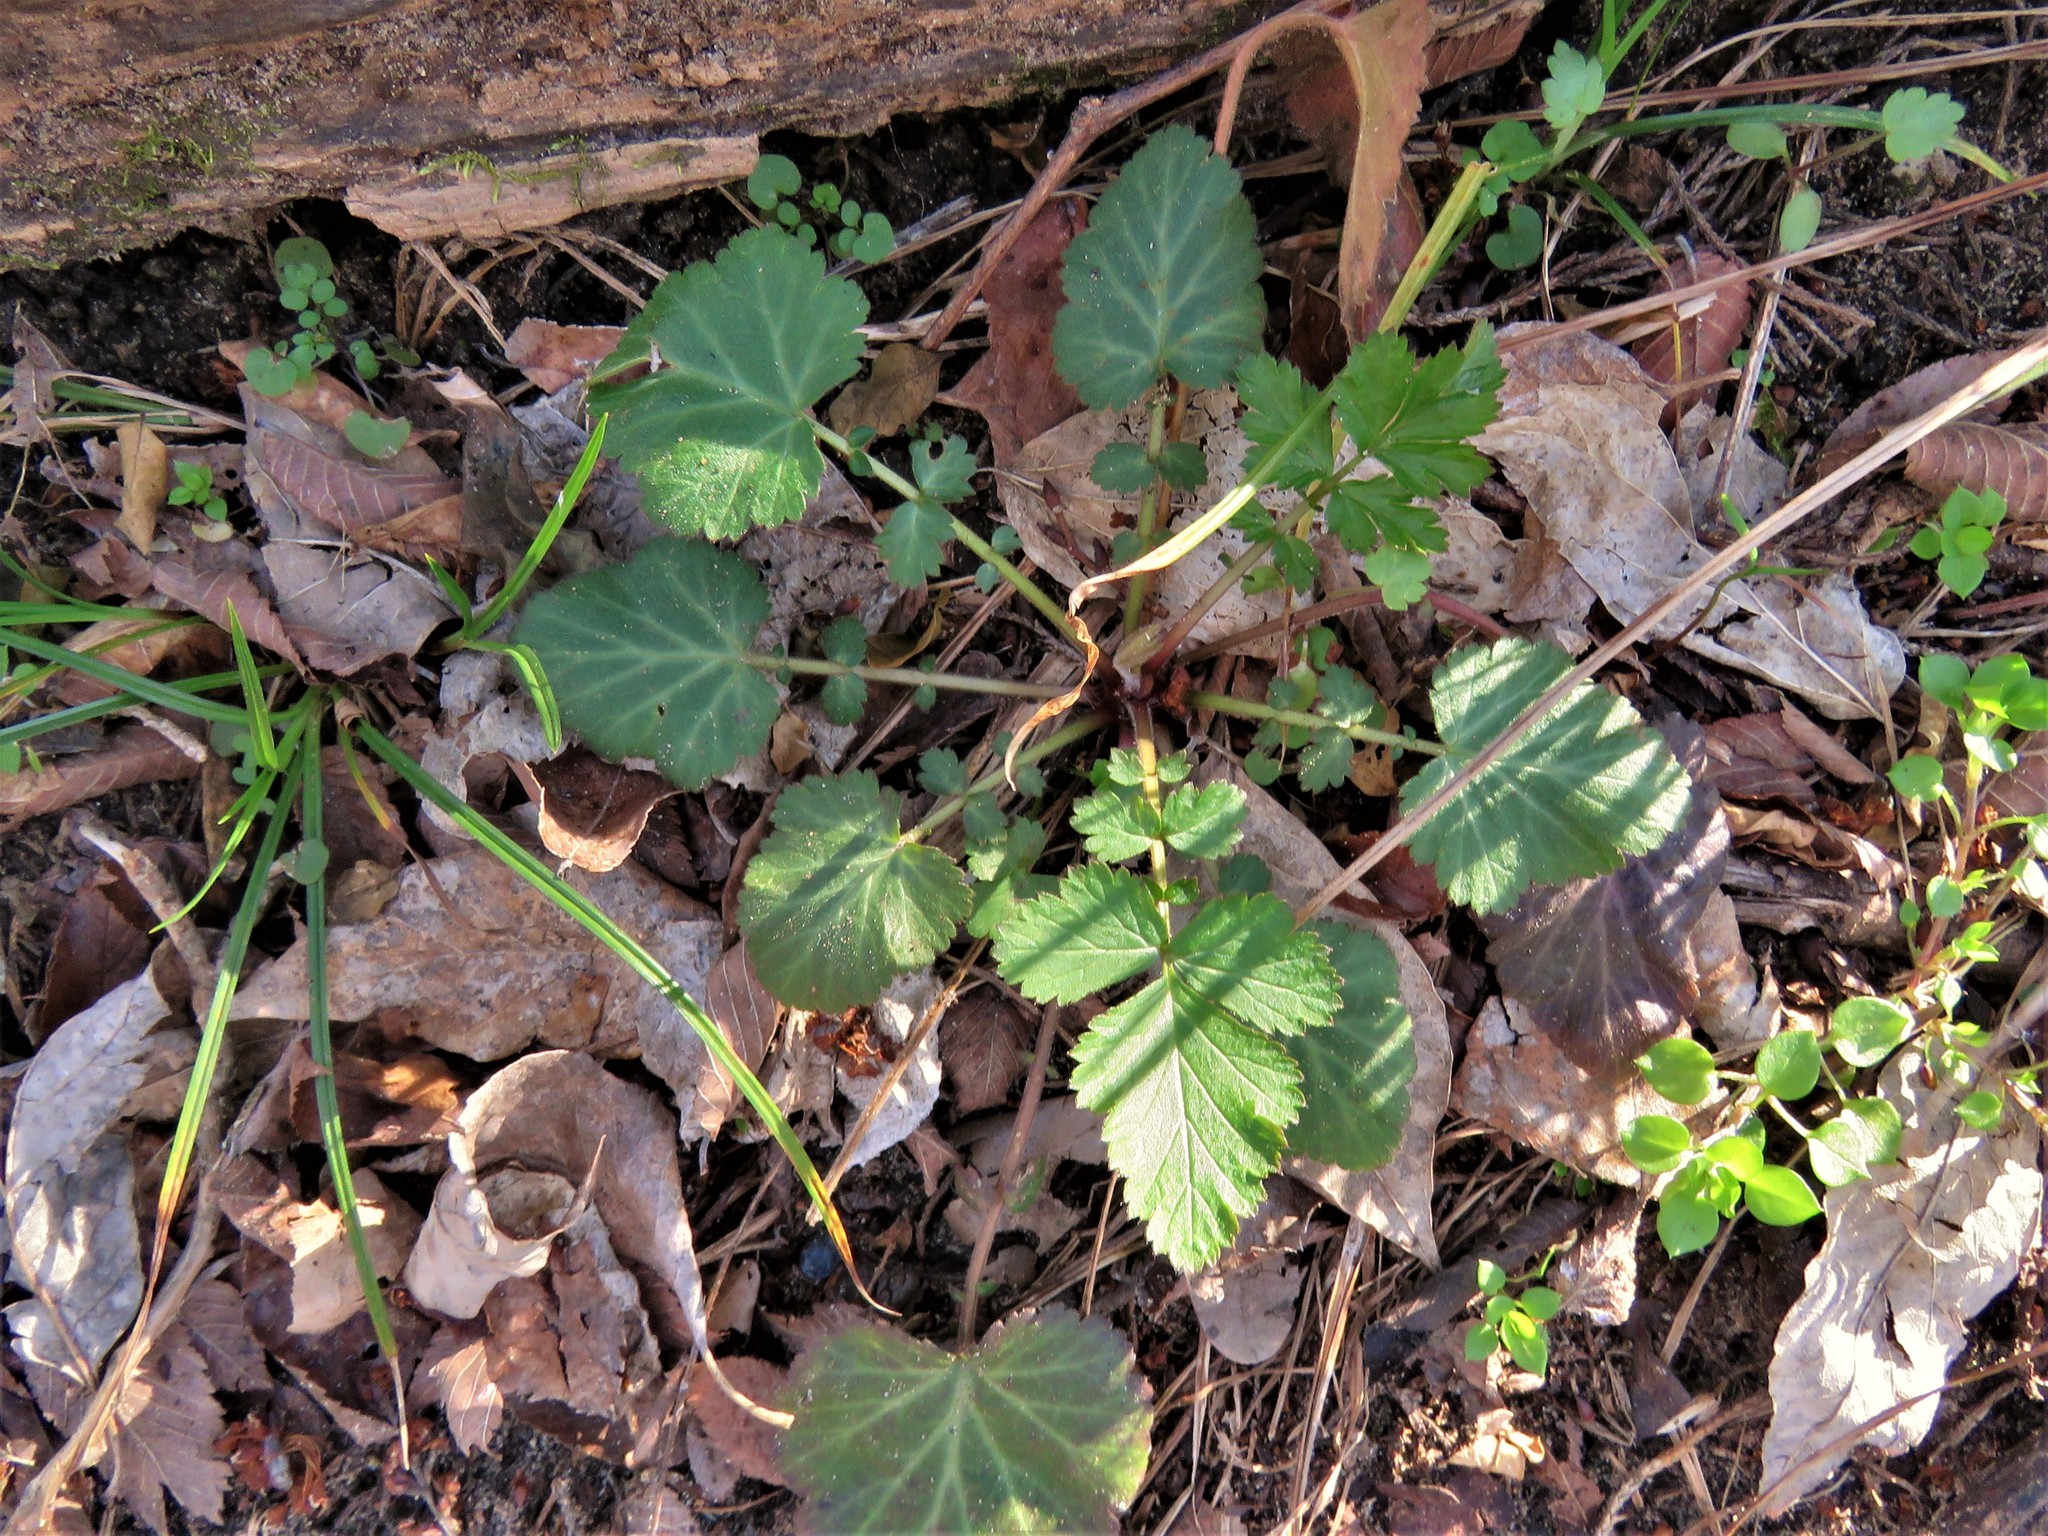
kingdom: Plantae
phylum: Tracheophyta
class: Magnoliopsida
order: Rosales
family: Rosaceae
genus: Geum
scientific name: Geum canadense
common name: White avens
